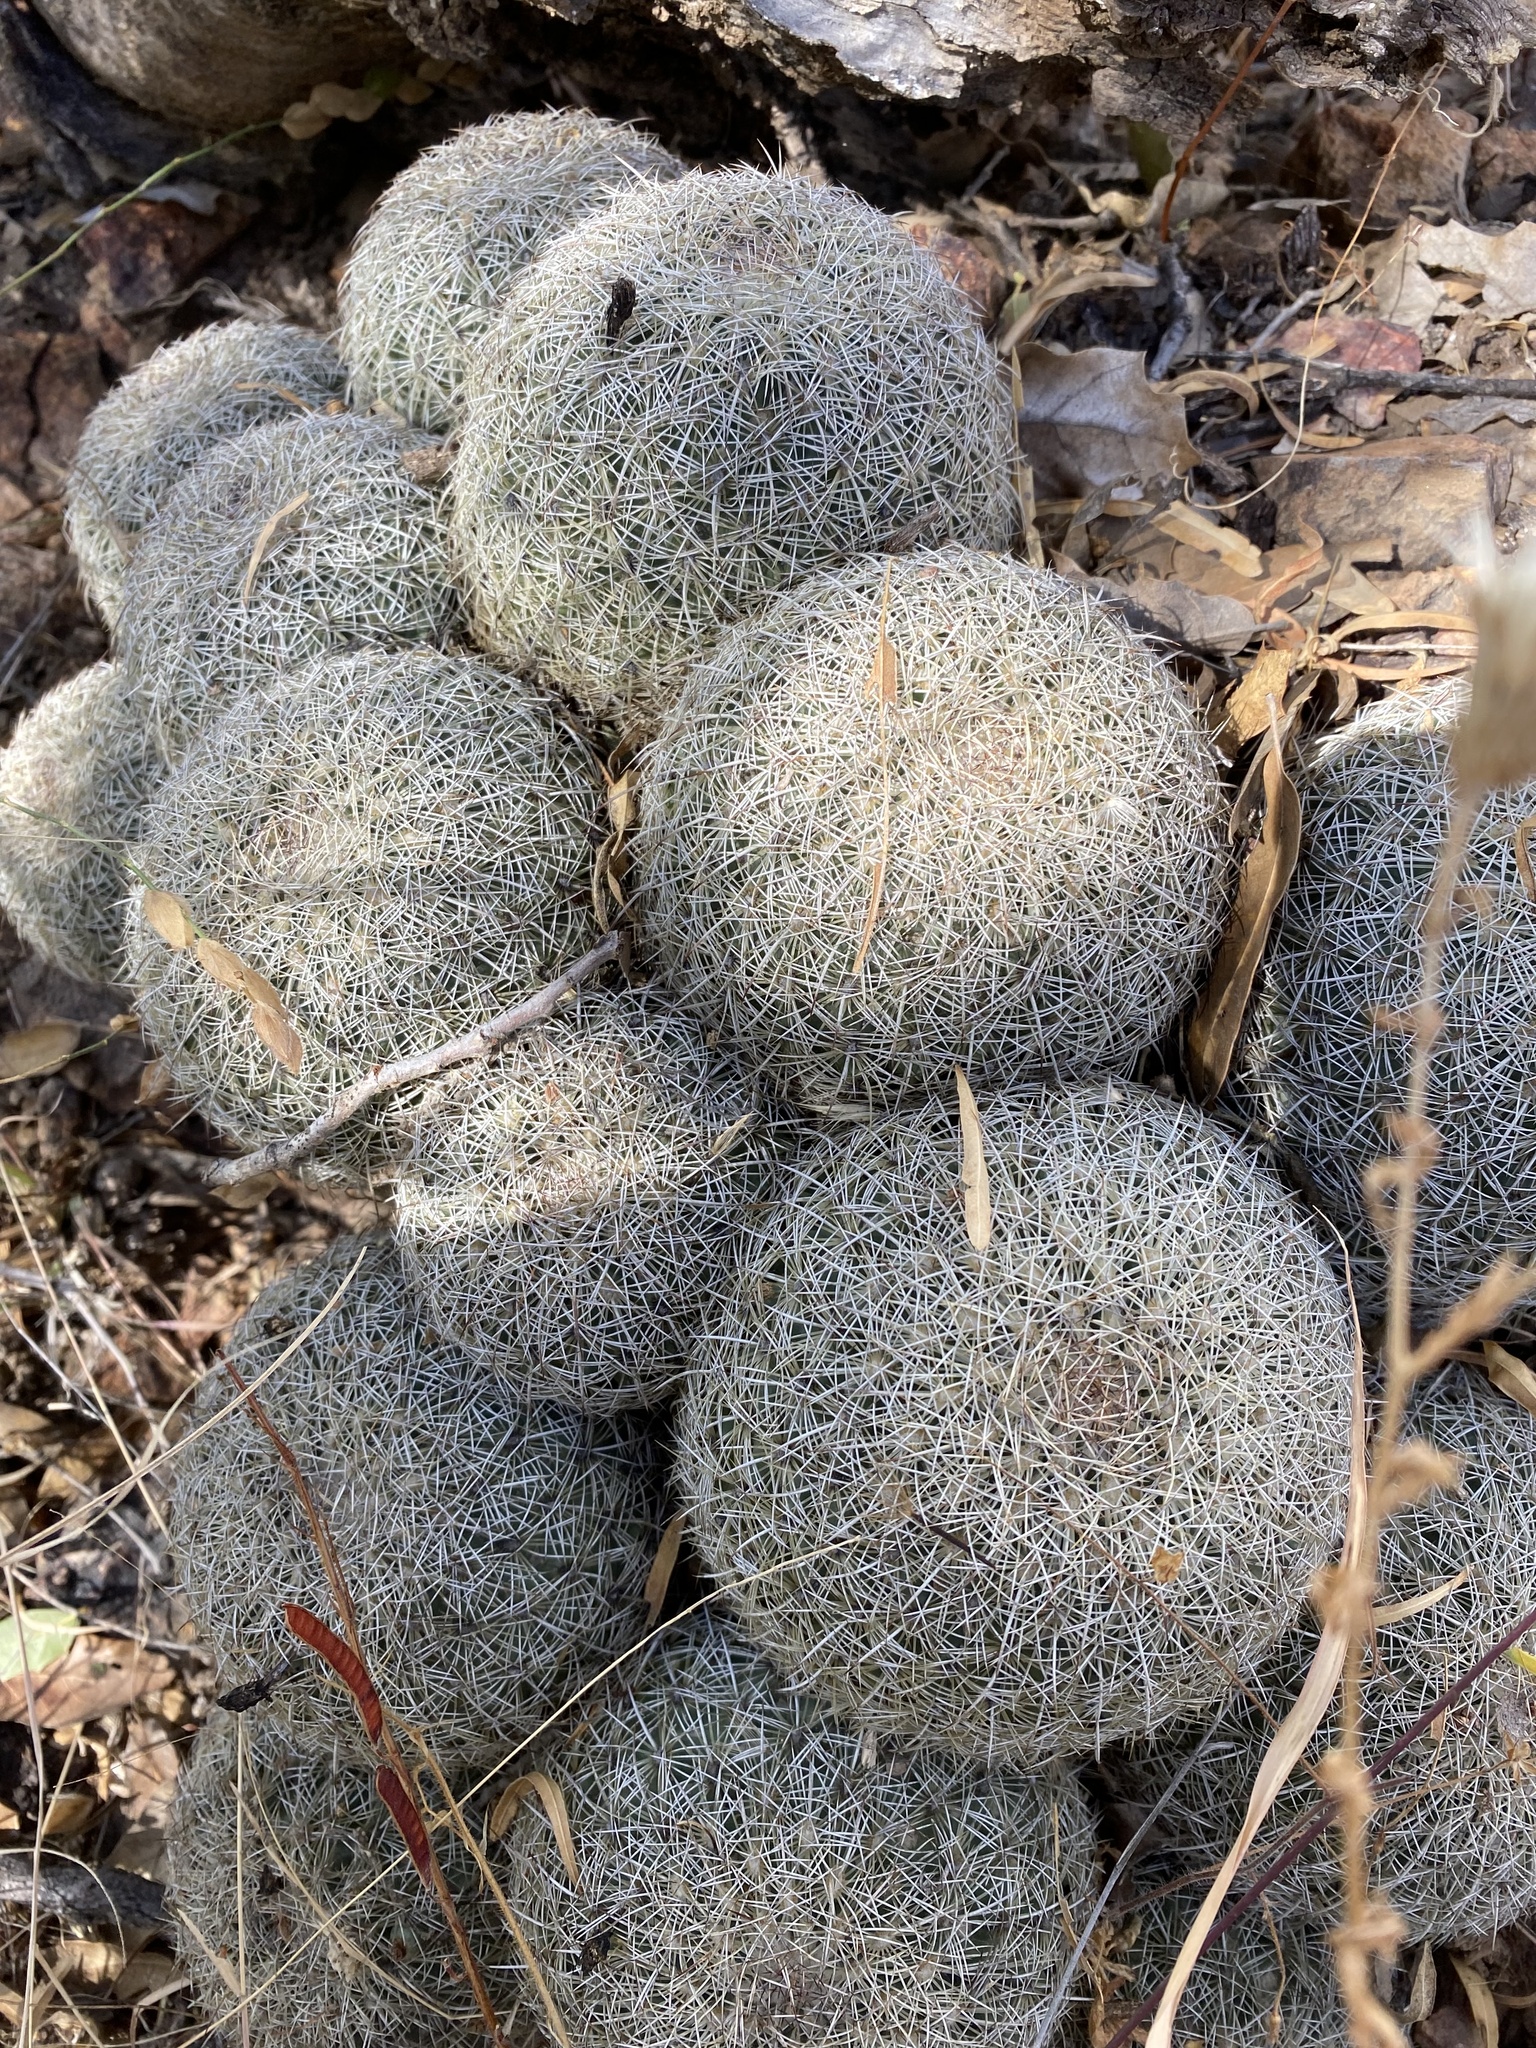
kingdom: Plantae
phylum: Tracheophyta
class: Magnoliopsida
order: Caryophyllales
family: Cactaceae
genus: Coryphantha
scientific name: Coryphantha recurvata
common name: Golden chested beehive
